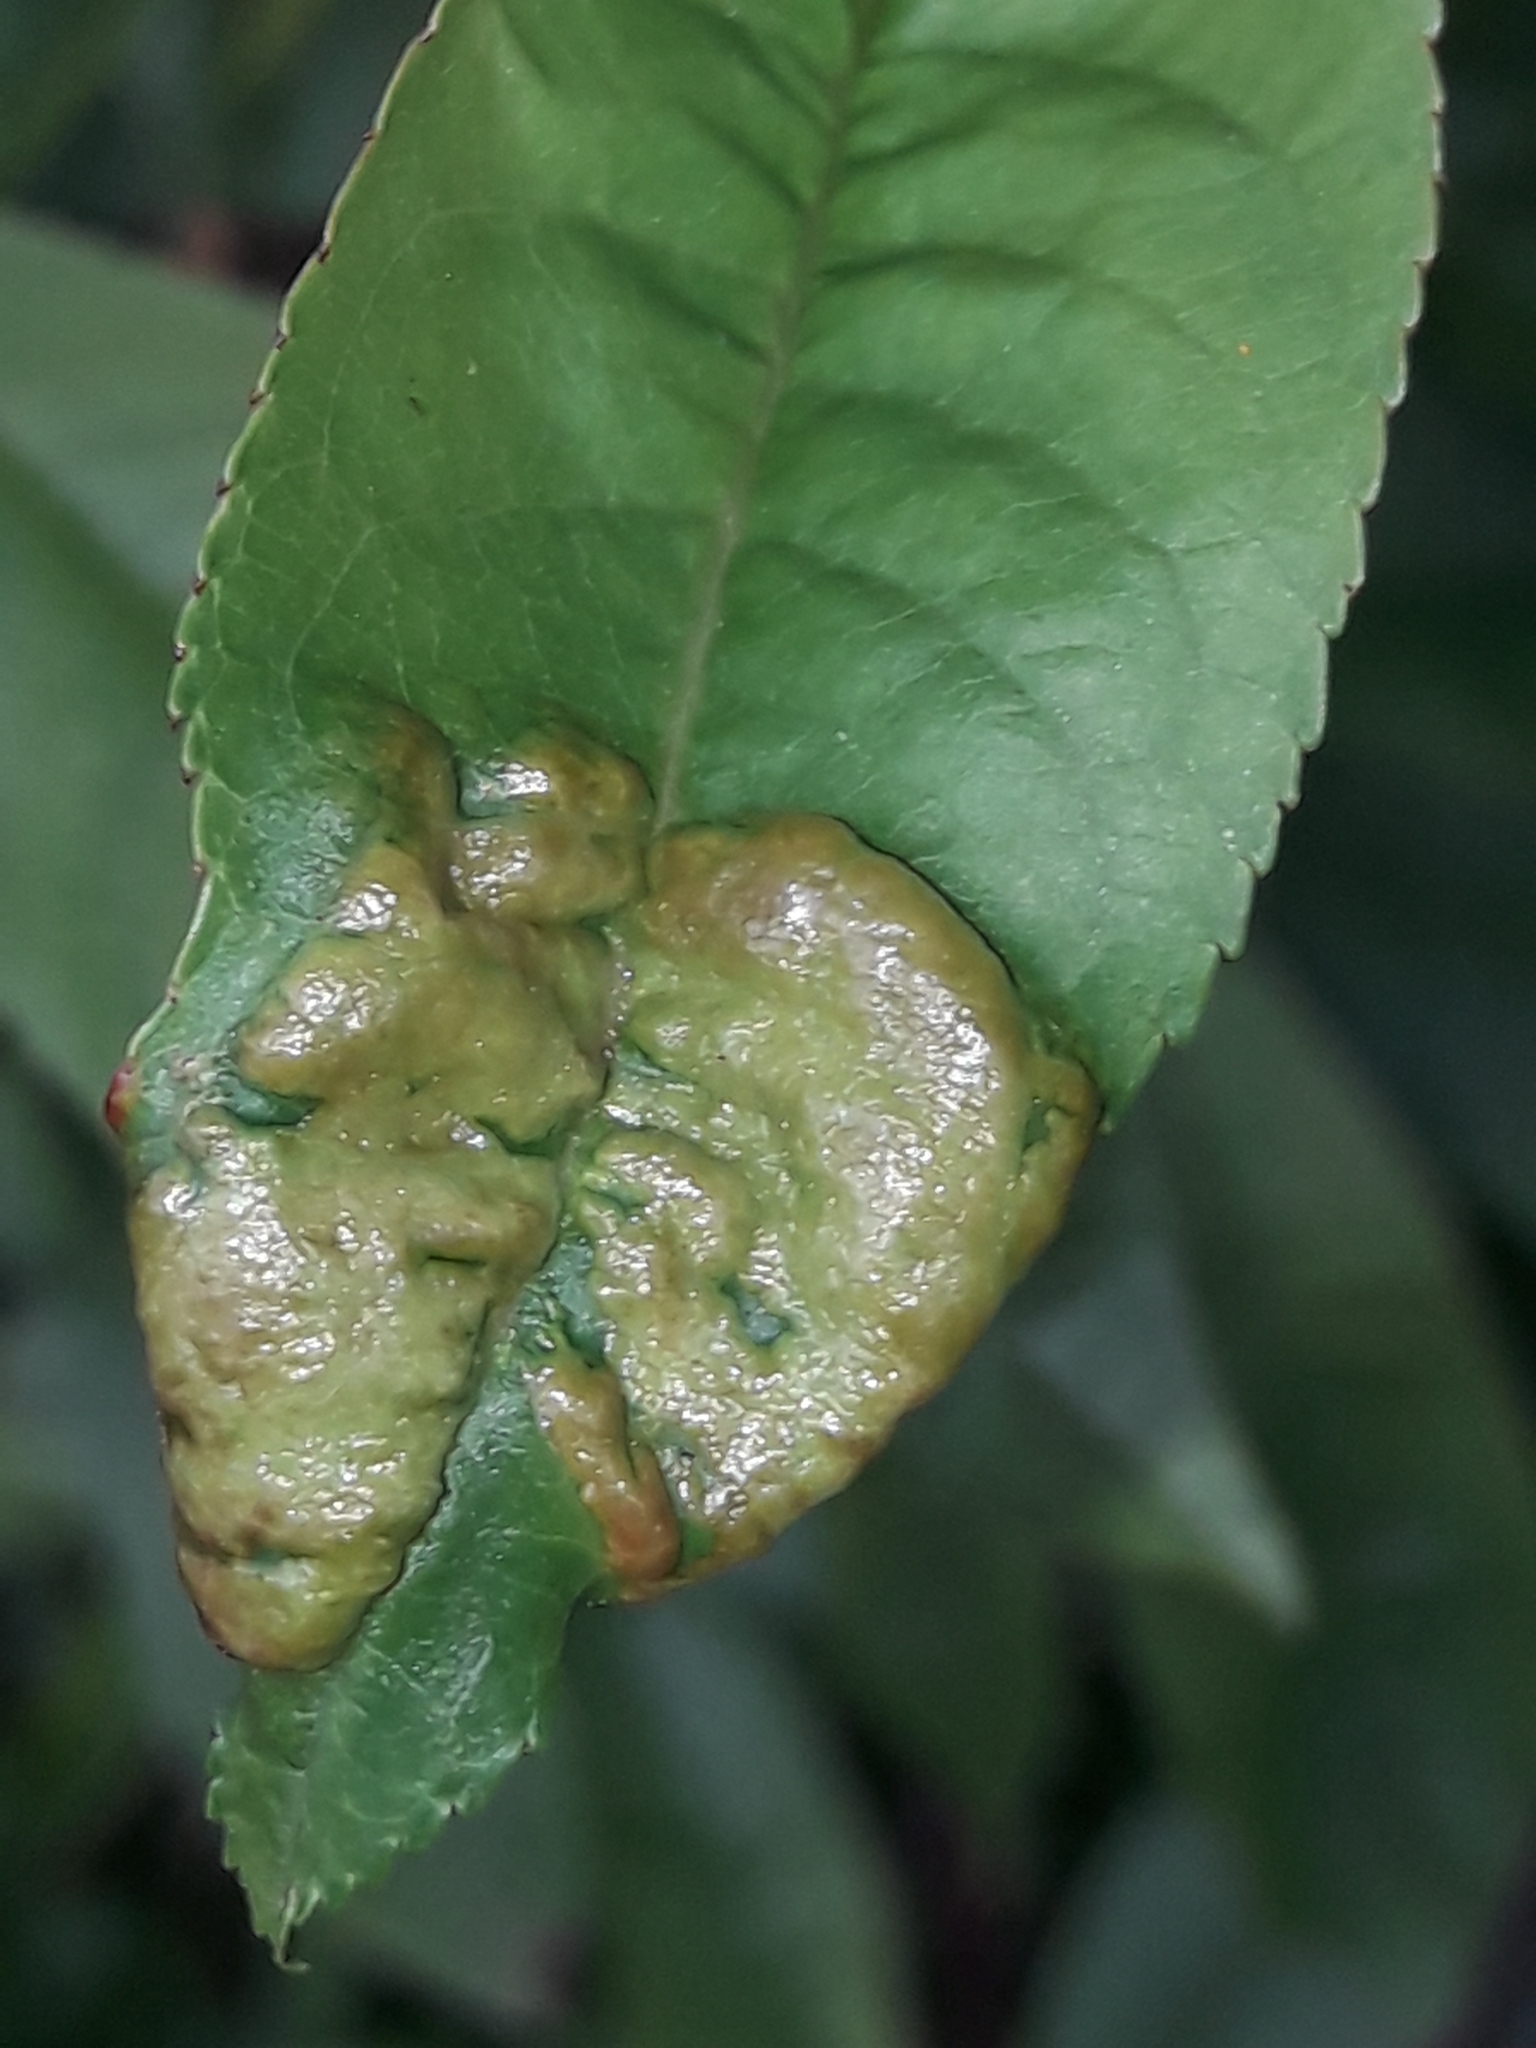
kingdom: Fungi
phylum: Ascomycota
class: Taphrinomycetes
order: Taphrinales
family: Taphrinaceae
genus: Taphrina
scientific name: Taphrina deformans
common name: Peach leaf curl
